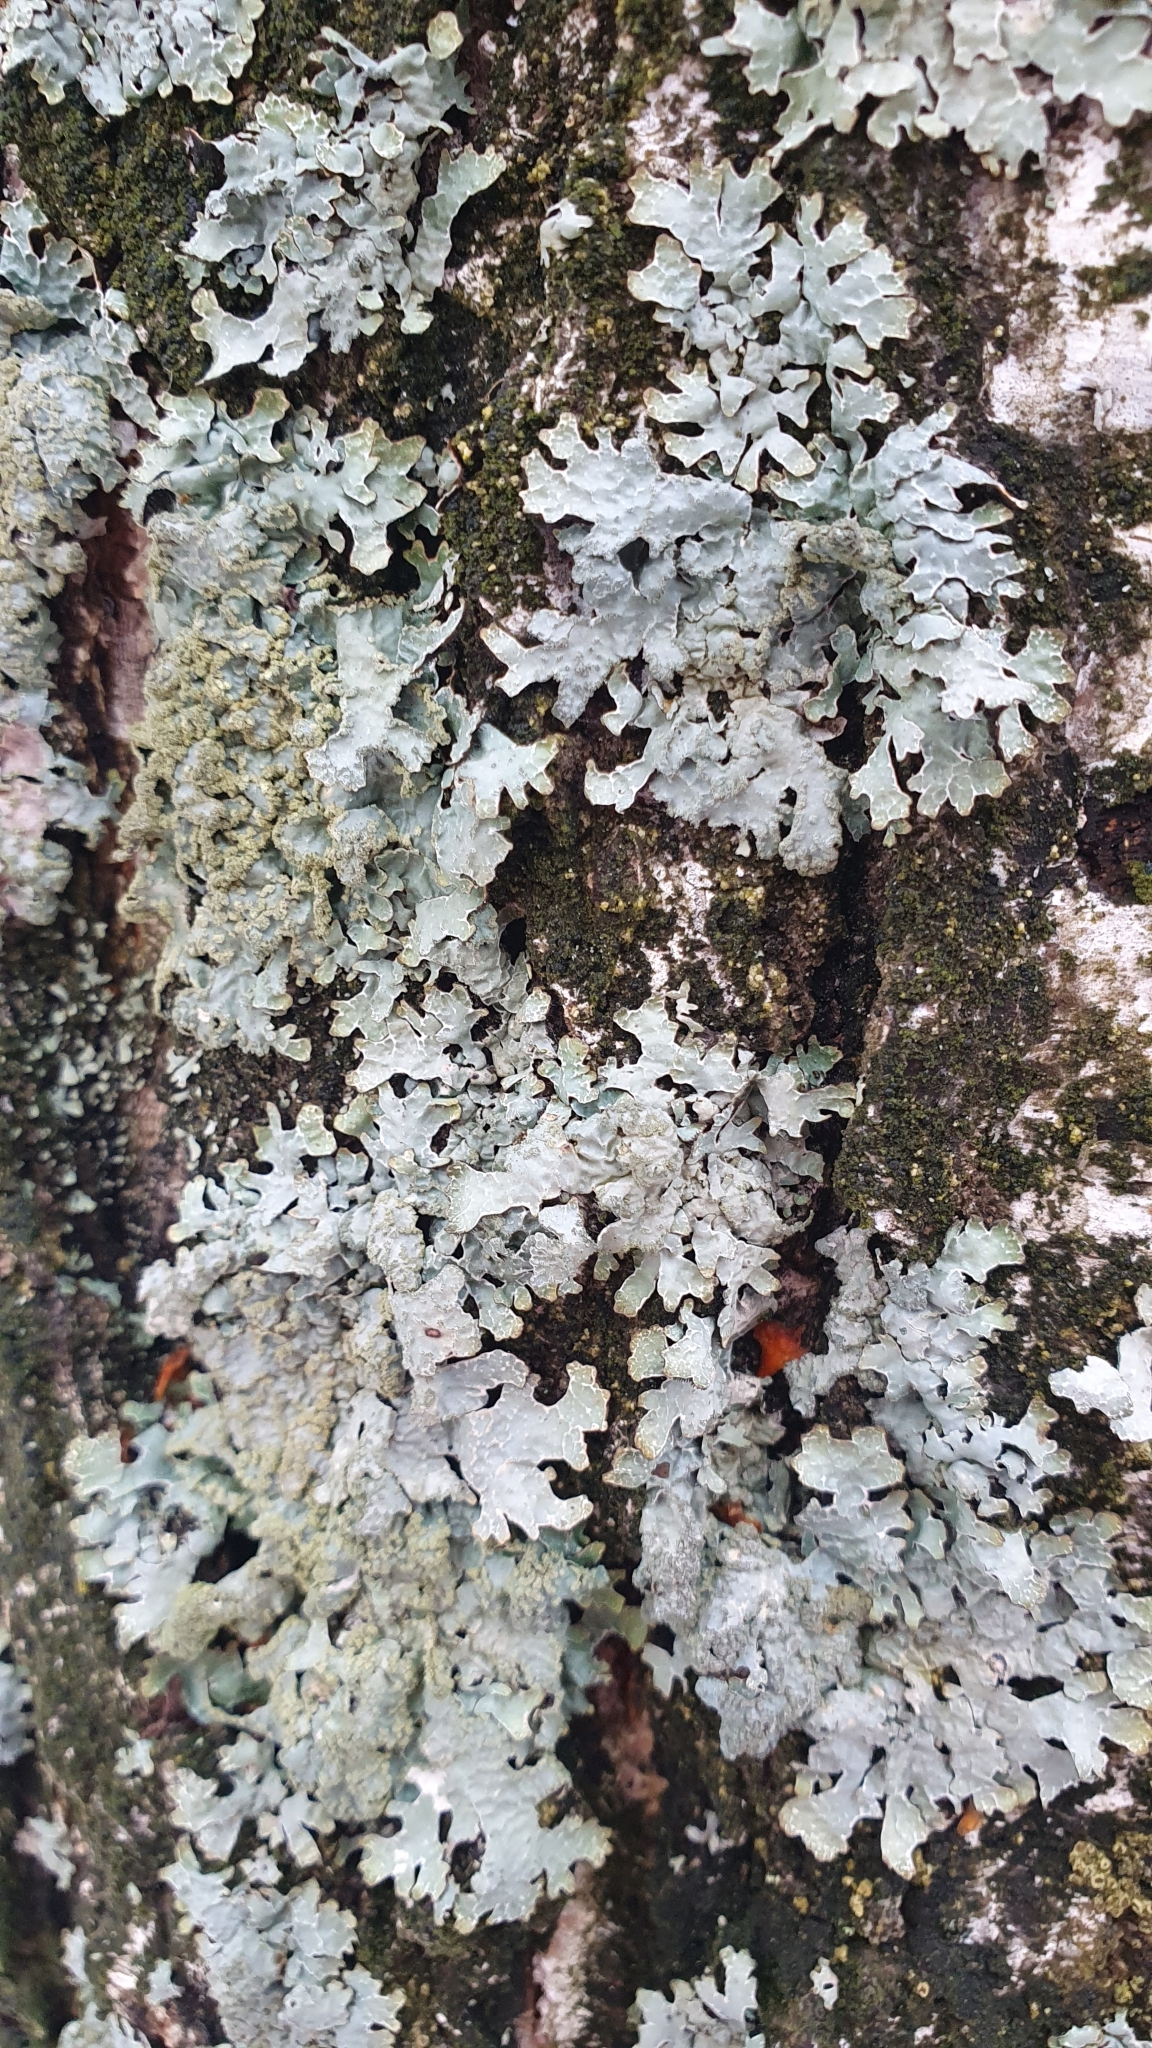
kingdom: Fungi
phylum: Ascomycota
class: Lecanoromycetes
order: Lecanorales
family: Parmeliaceae
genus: Parmelia
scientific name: Parmelia sulcata
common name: Netted shield lichen
